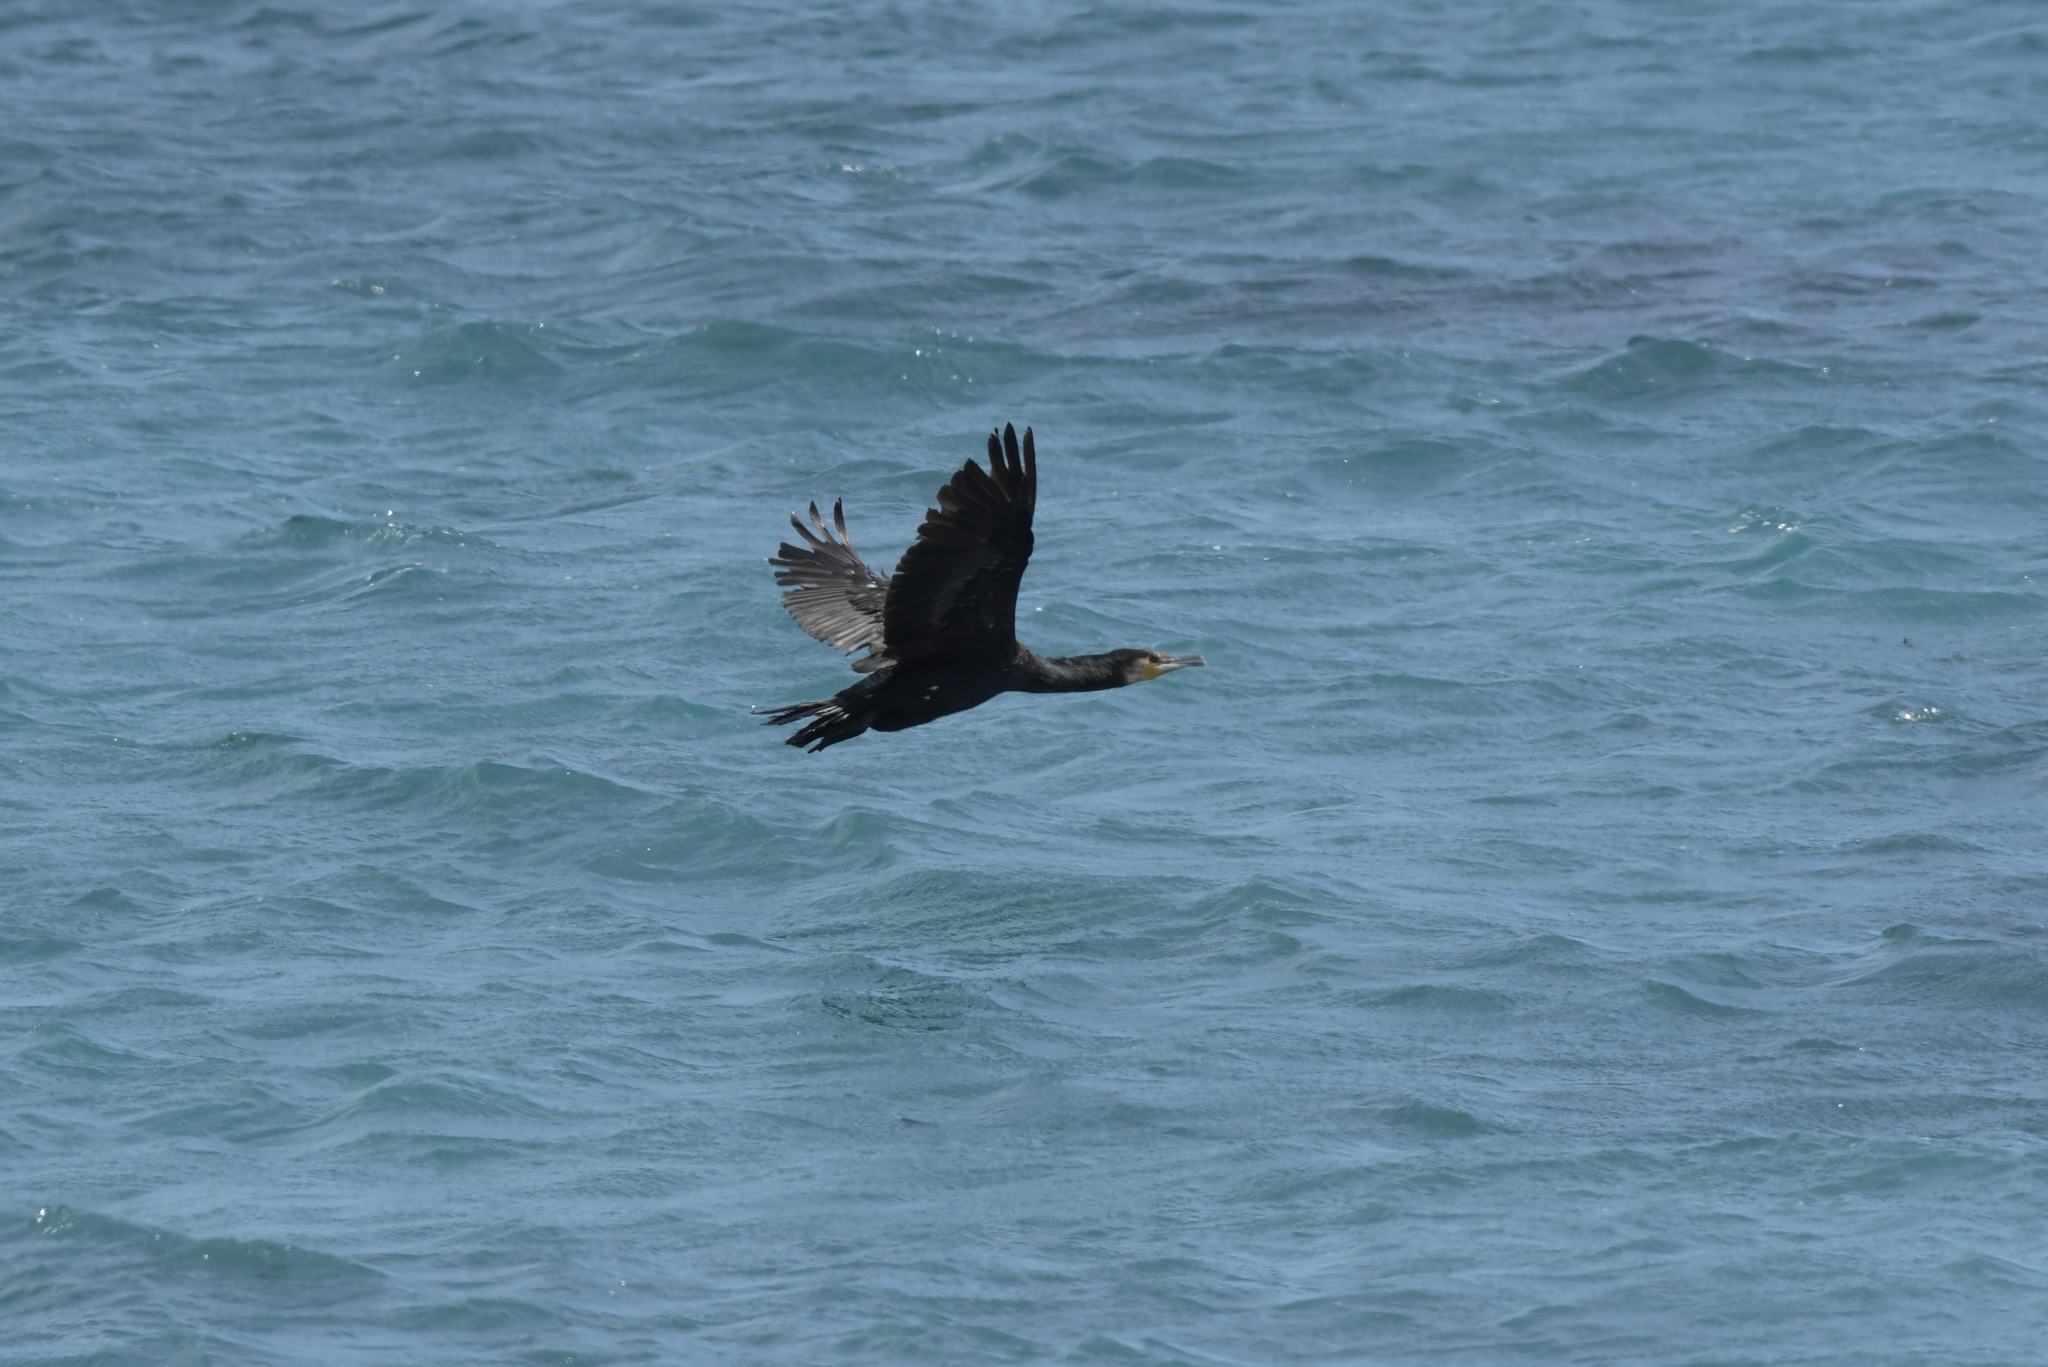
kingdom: Animalia
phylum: Chordata
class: Aves
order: Suliformes
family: Phalacrocoracidae
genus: Phalacrocorax
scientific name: Phalacrocorax carbo
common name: Great cormorant
